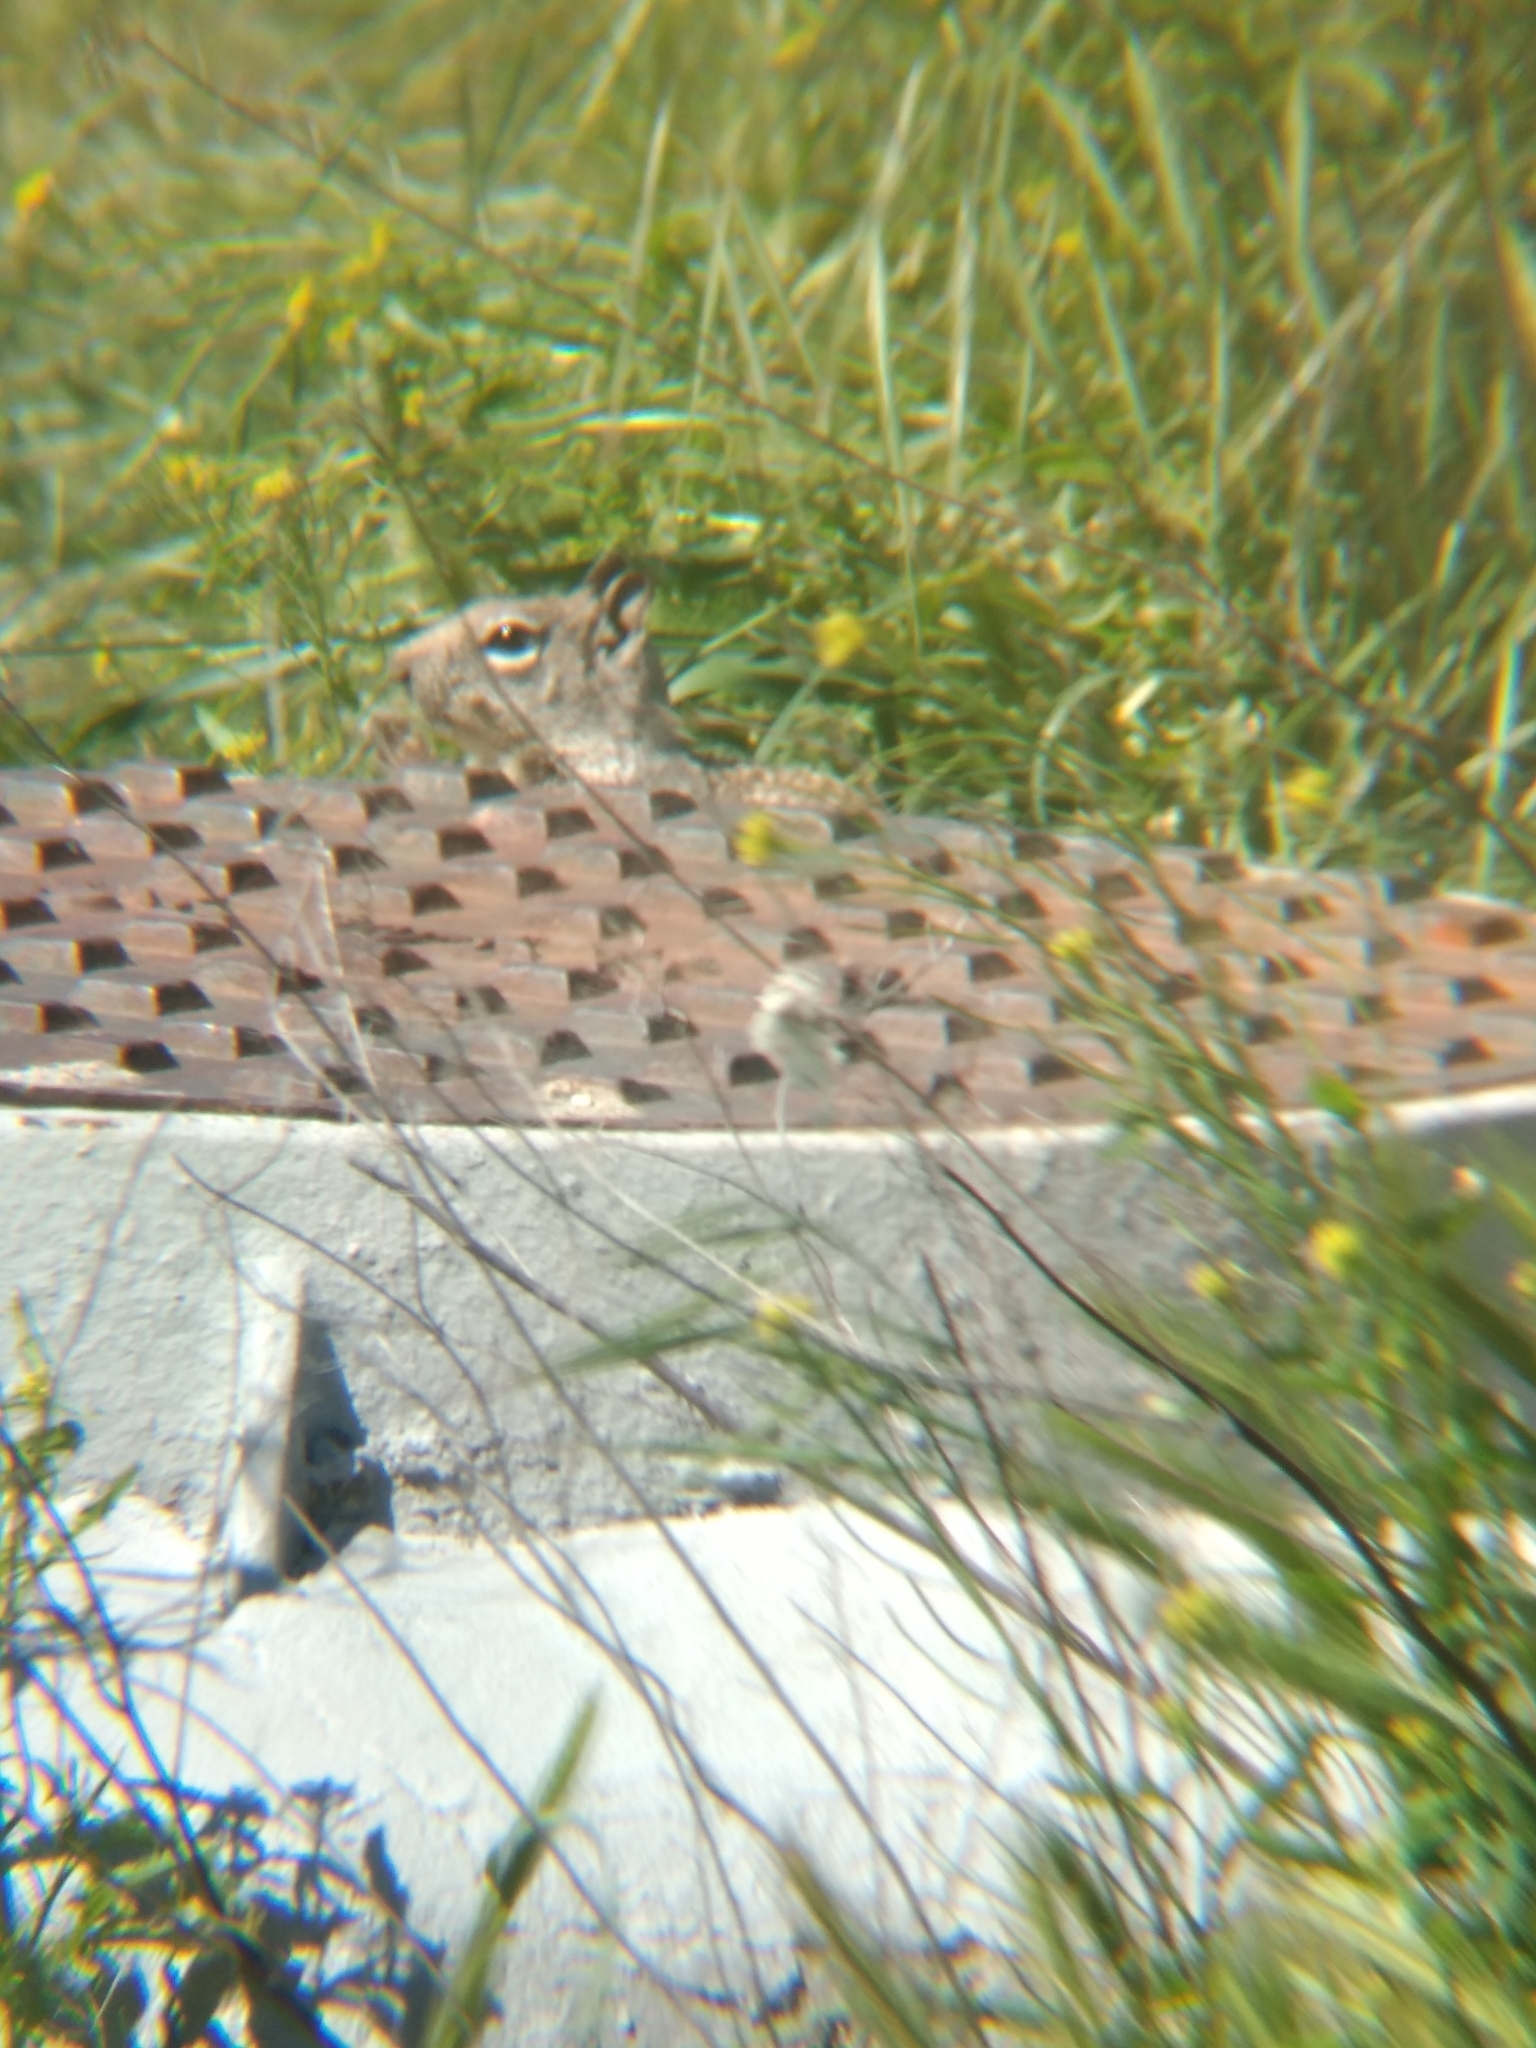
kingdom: Animalia
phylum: Chordata
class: Mammalia
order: Rodentia
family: Sciuridae
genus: Otospermophilus
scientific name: Otospermophilus beecheyi
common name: California ground squirrel
